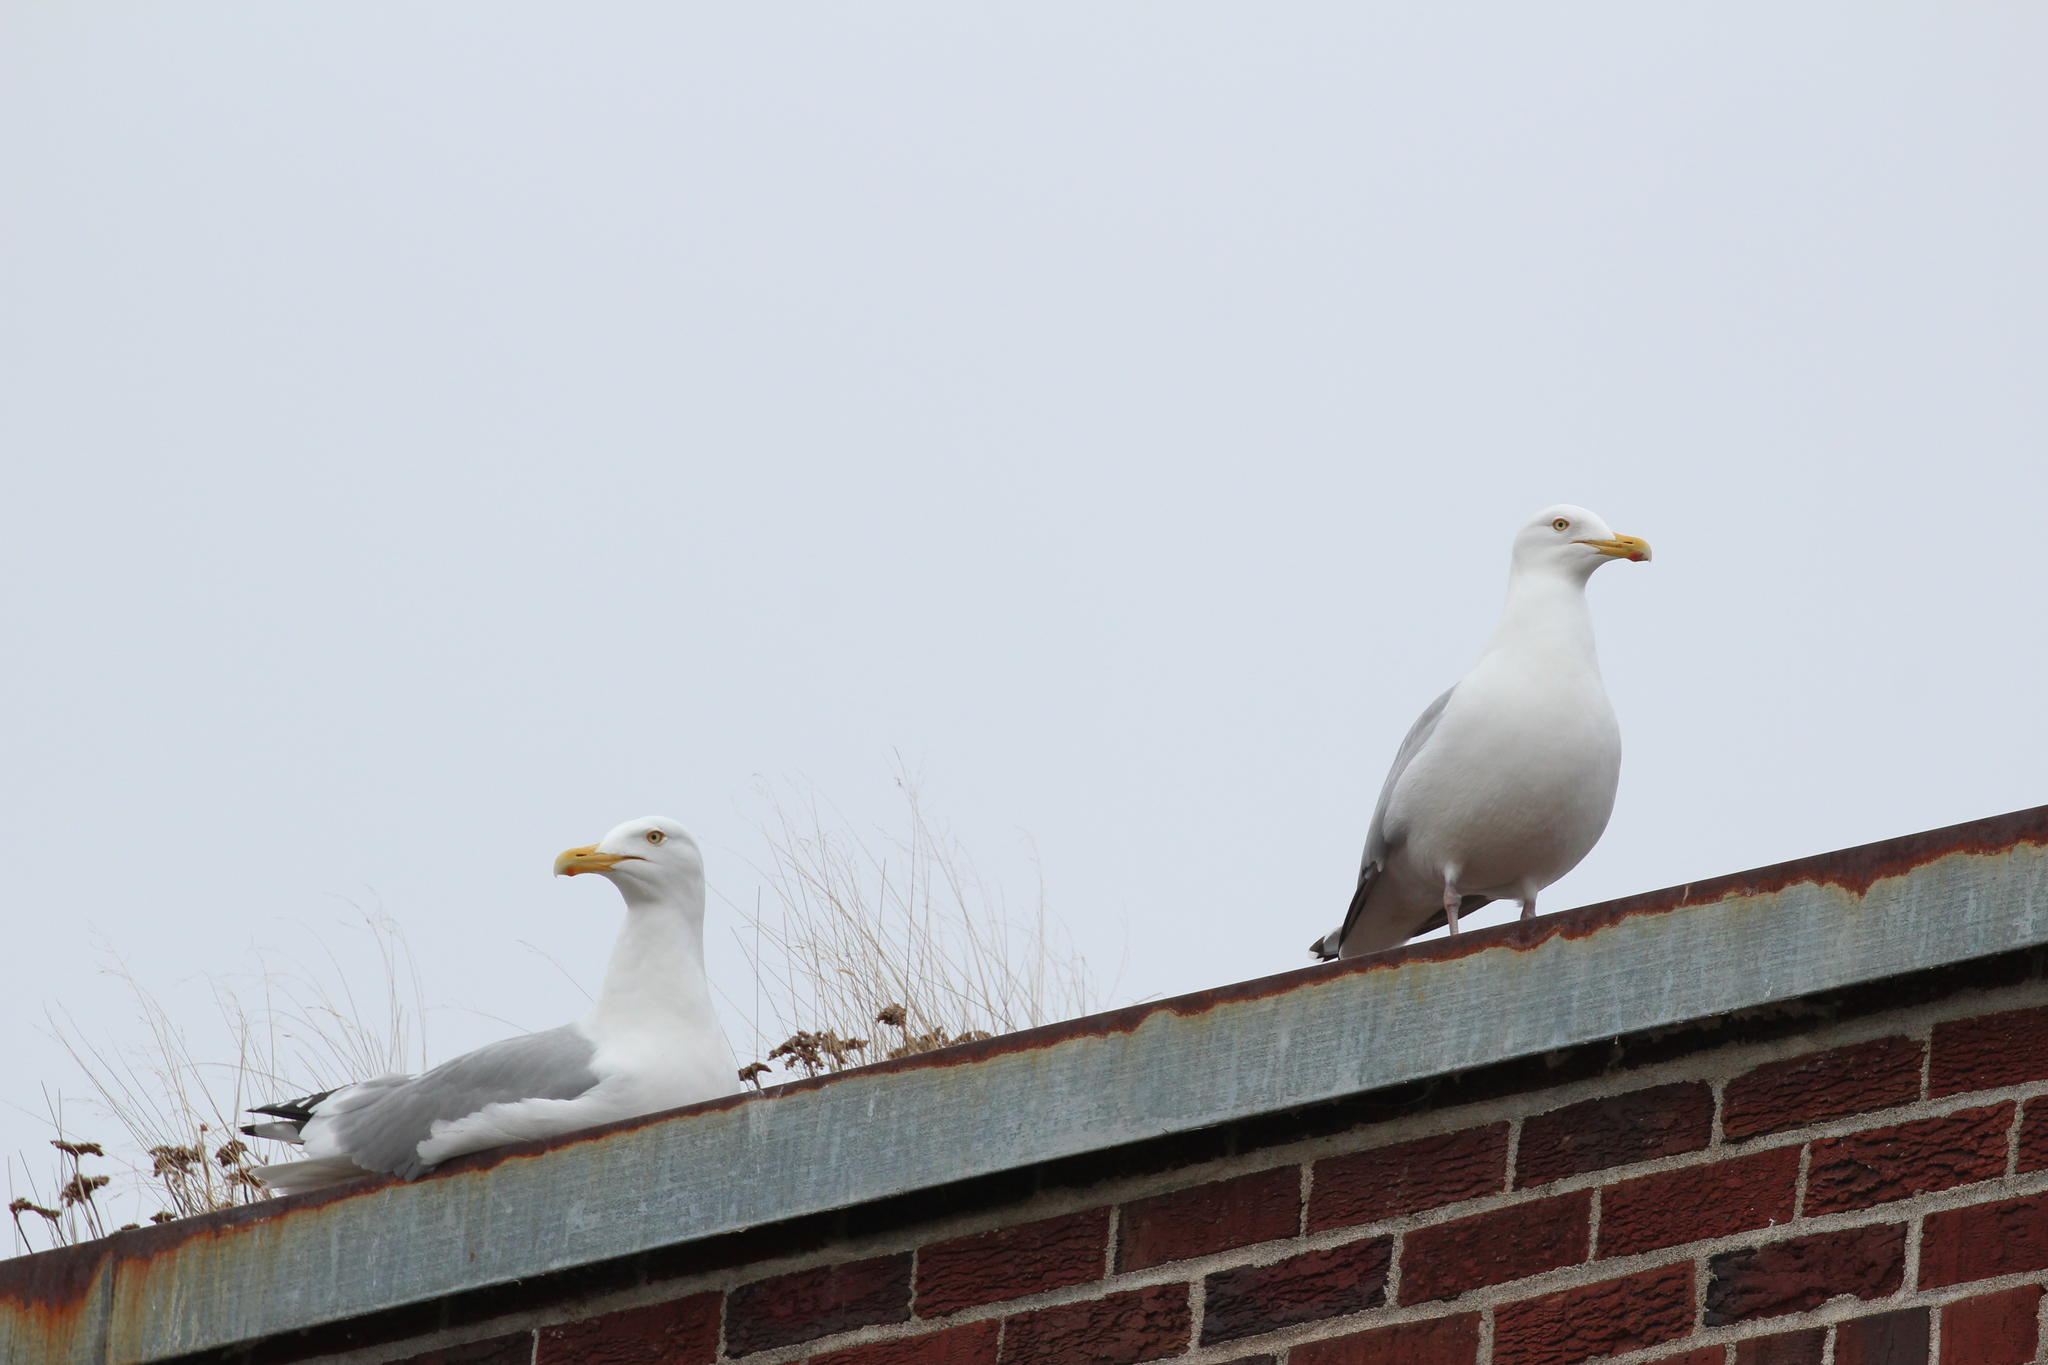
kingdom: Animalia
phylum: Chordata
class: Aves
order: Charadriiformes
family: Laridae
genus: Larus
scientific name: Larus argentatus
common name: Herring gull
